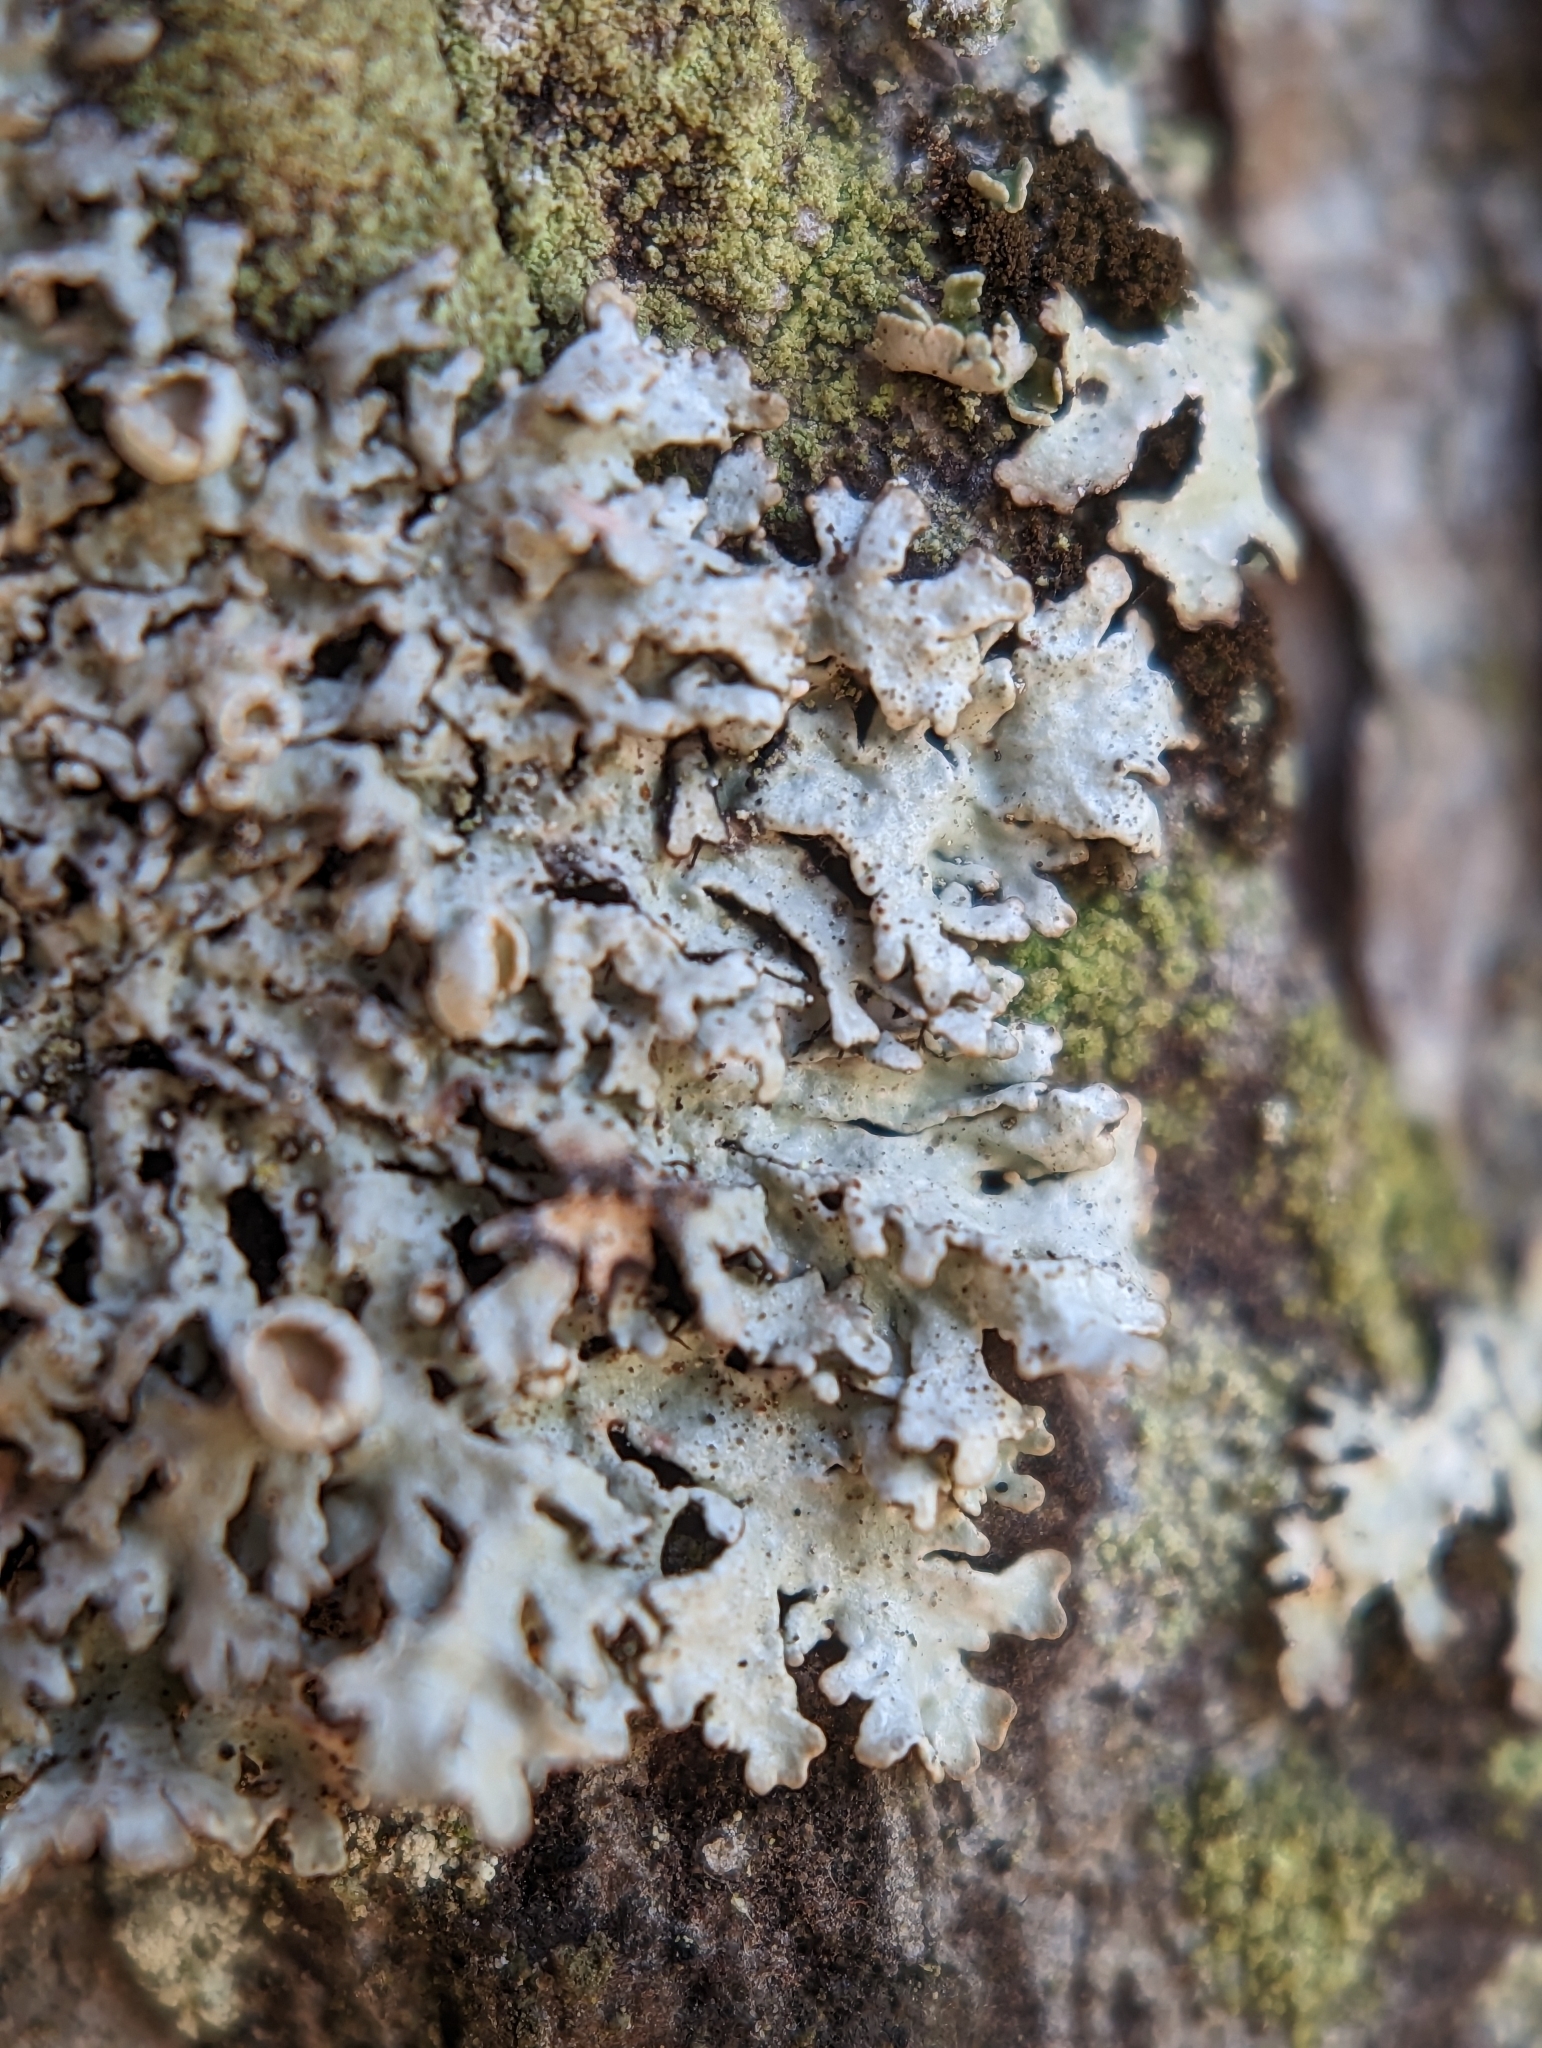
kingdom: Fungi
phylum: Ascomycota
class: Lecanoromycetes
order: Lecanorales
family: Parmeliaceae
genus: Imshaugia
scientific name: Imshaugia placorodia
